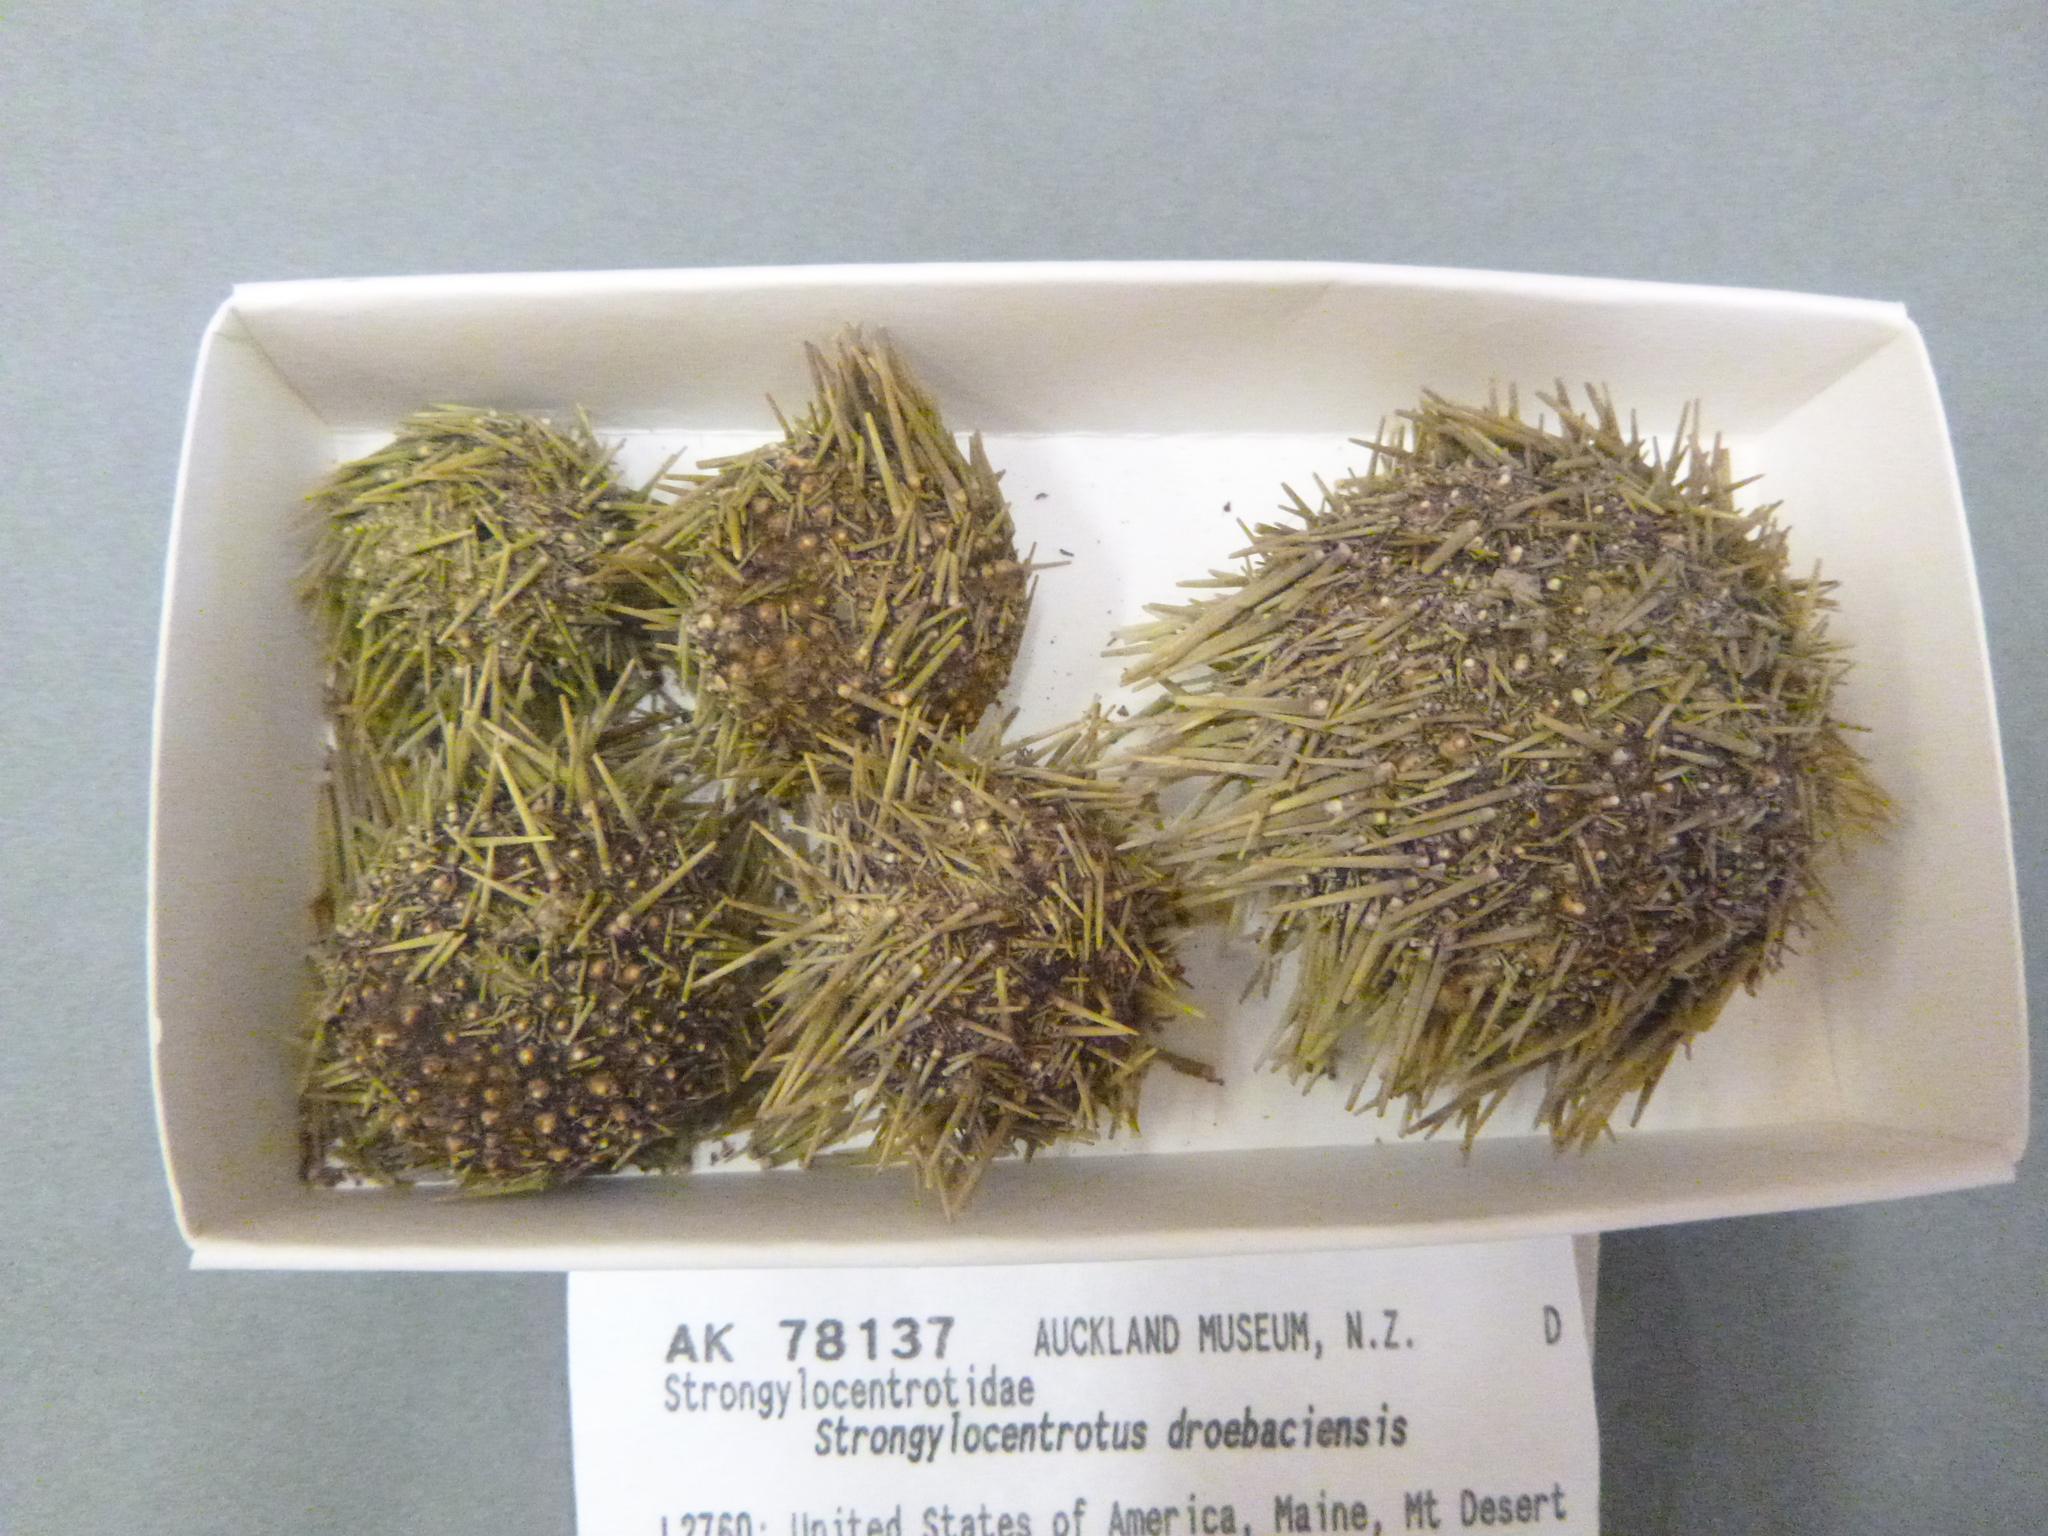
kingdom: Animalia
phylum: Echinodermata
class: Echinoidea
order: Camarodonta
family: Strongylocentrotidae
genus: Strongylocentrotus
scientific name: Strongylocentrotus droebachiensis
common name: Northern sea urchin
